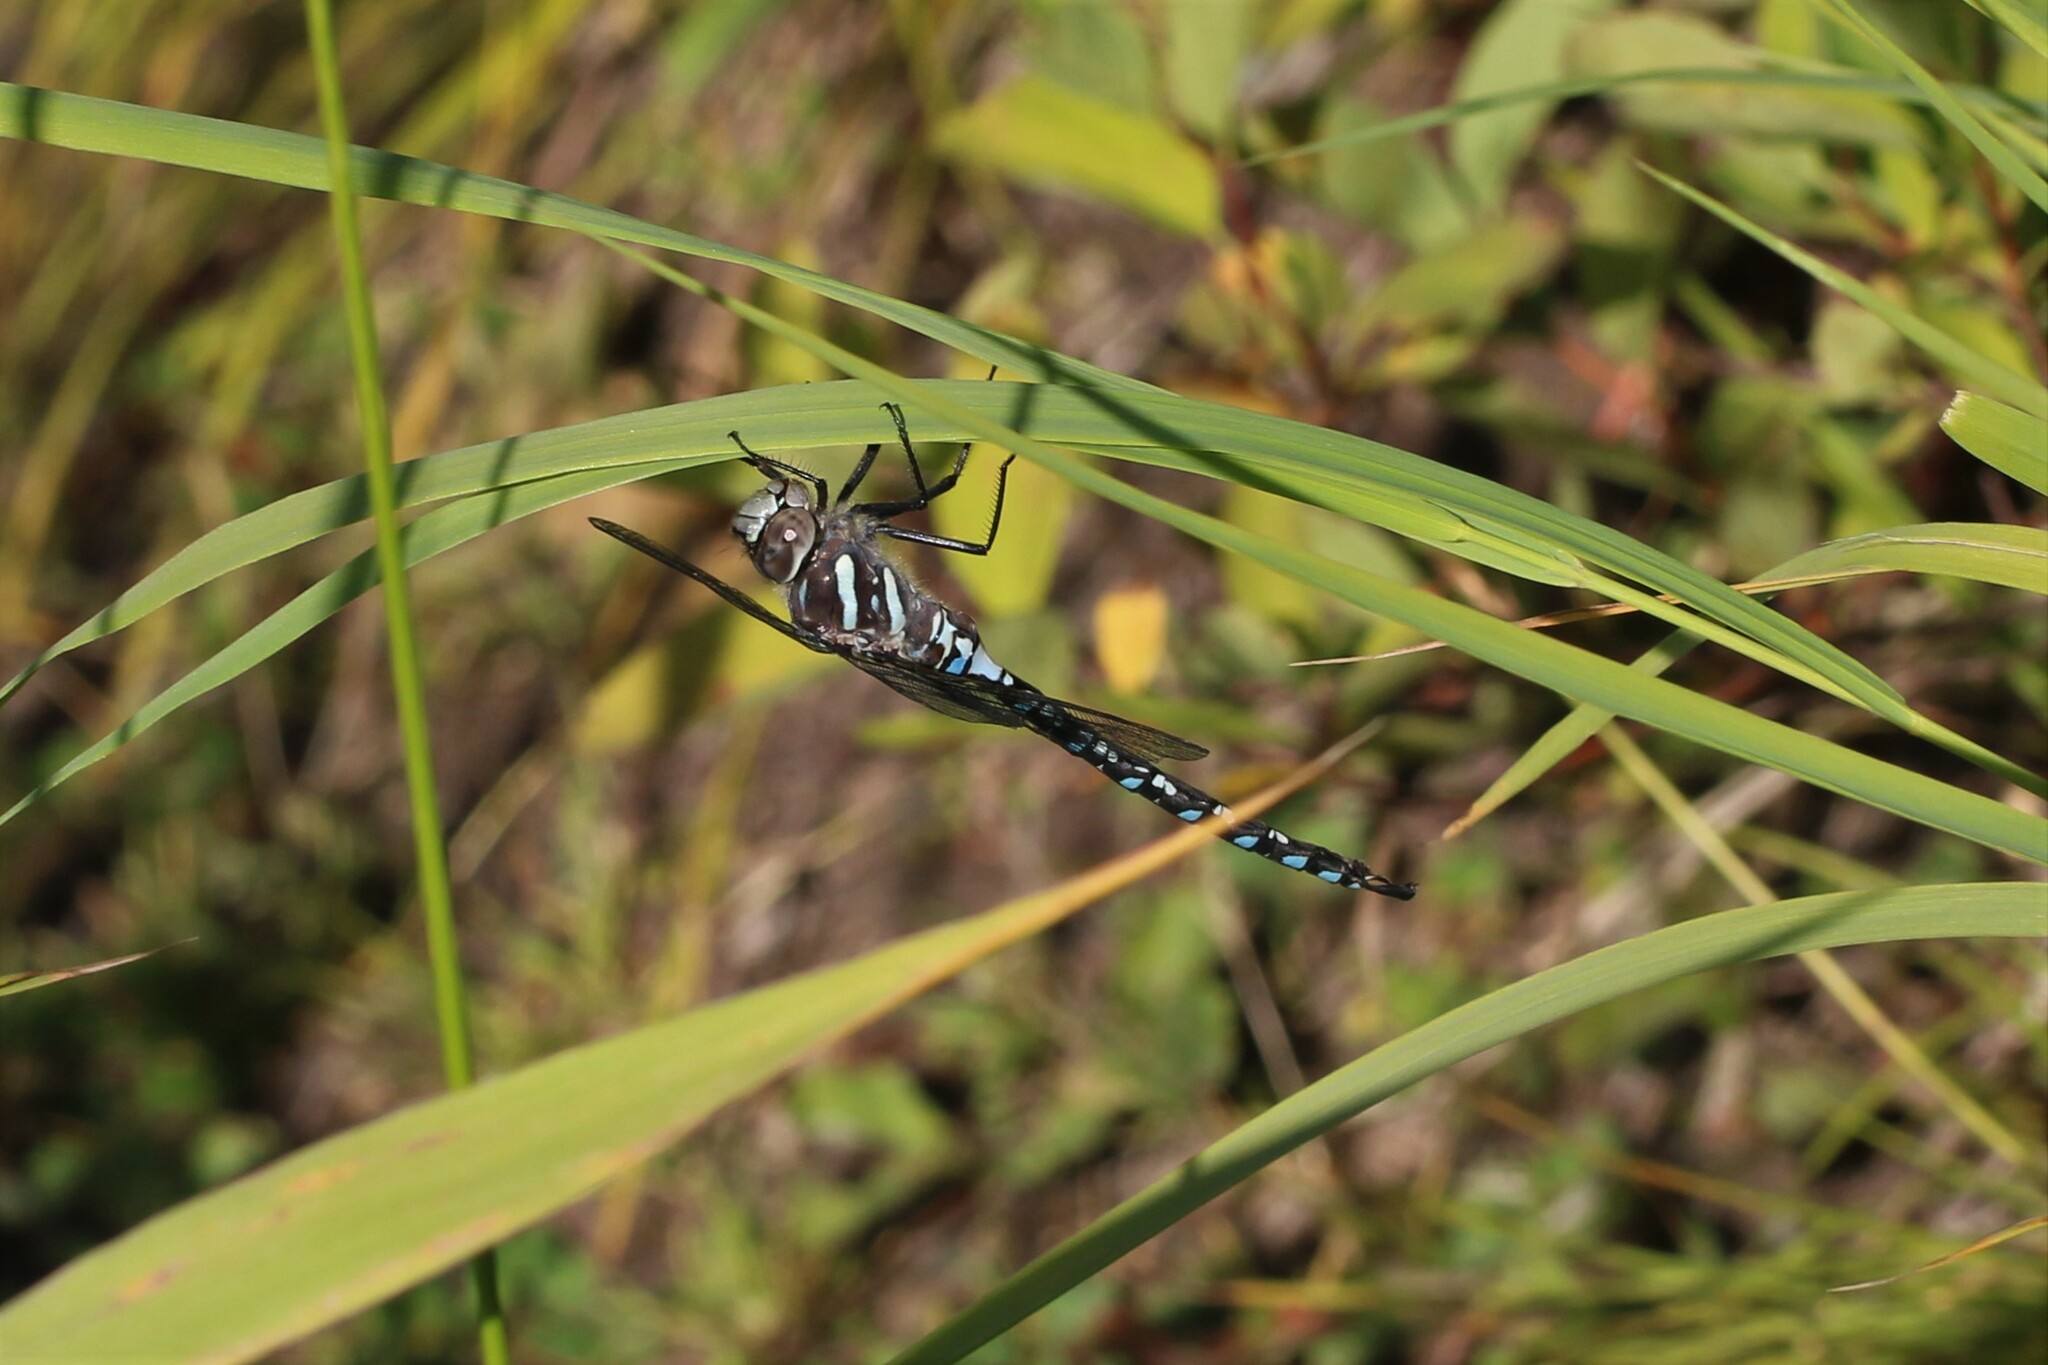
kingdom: Animalia
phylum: Arthropoda
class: Insecta
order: Odonata
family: Aeshnidae
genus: Aeshna
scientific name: Aeshna palmata
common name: Paddle-tailed darner
